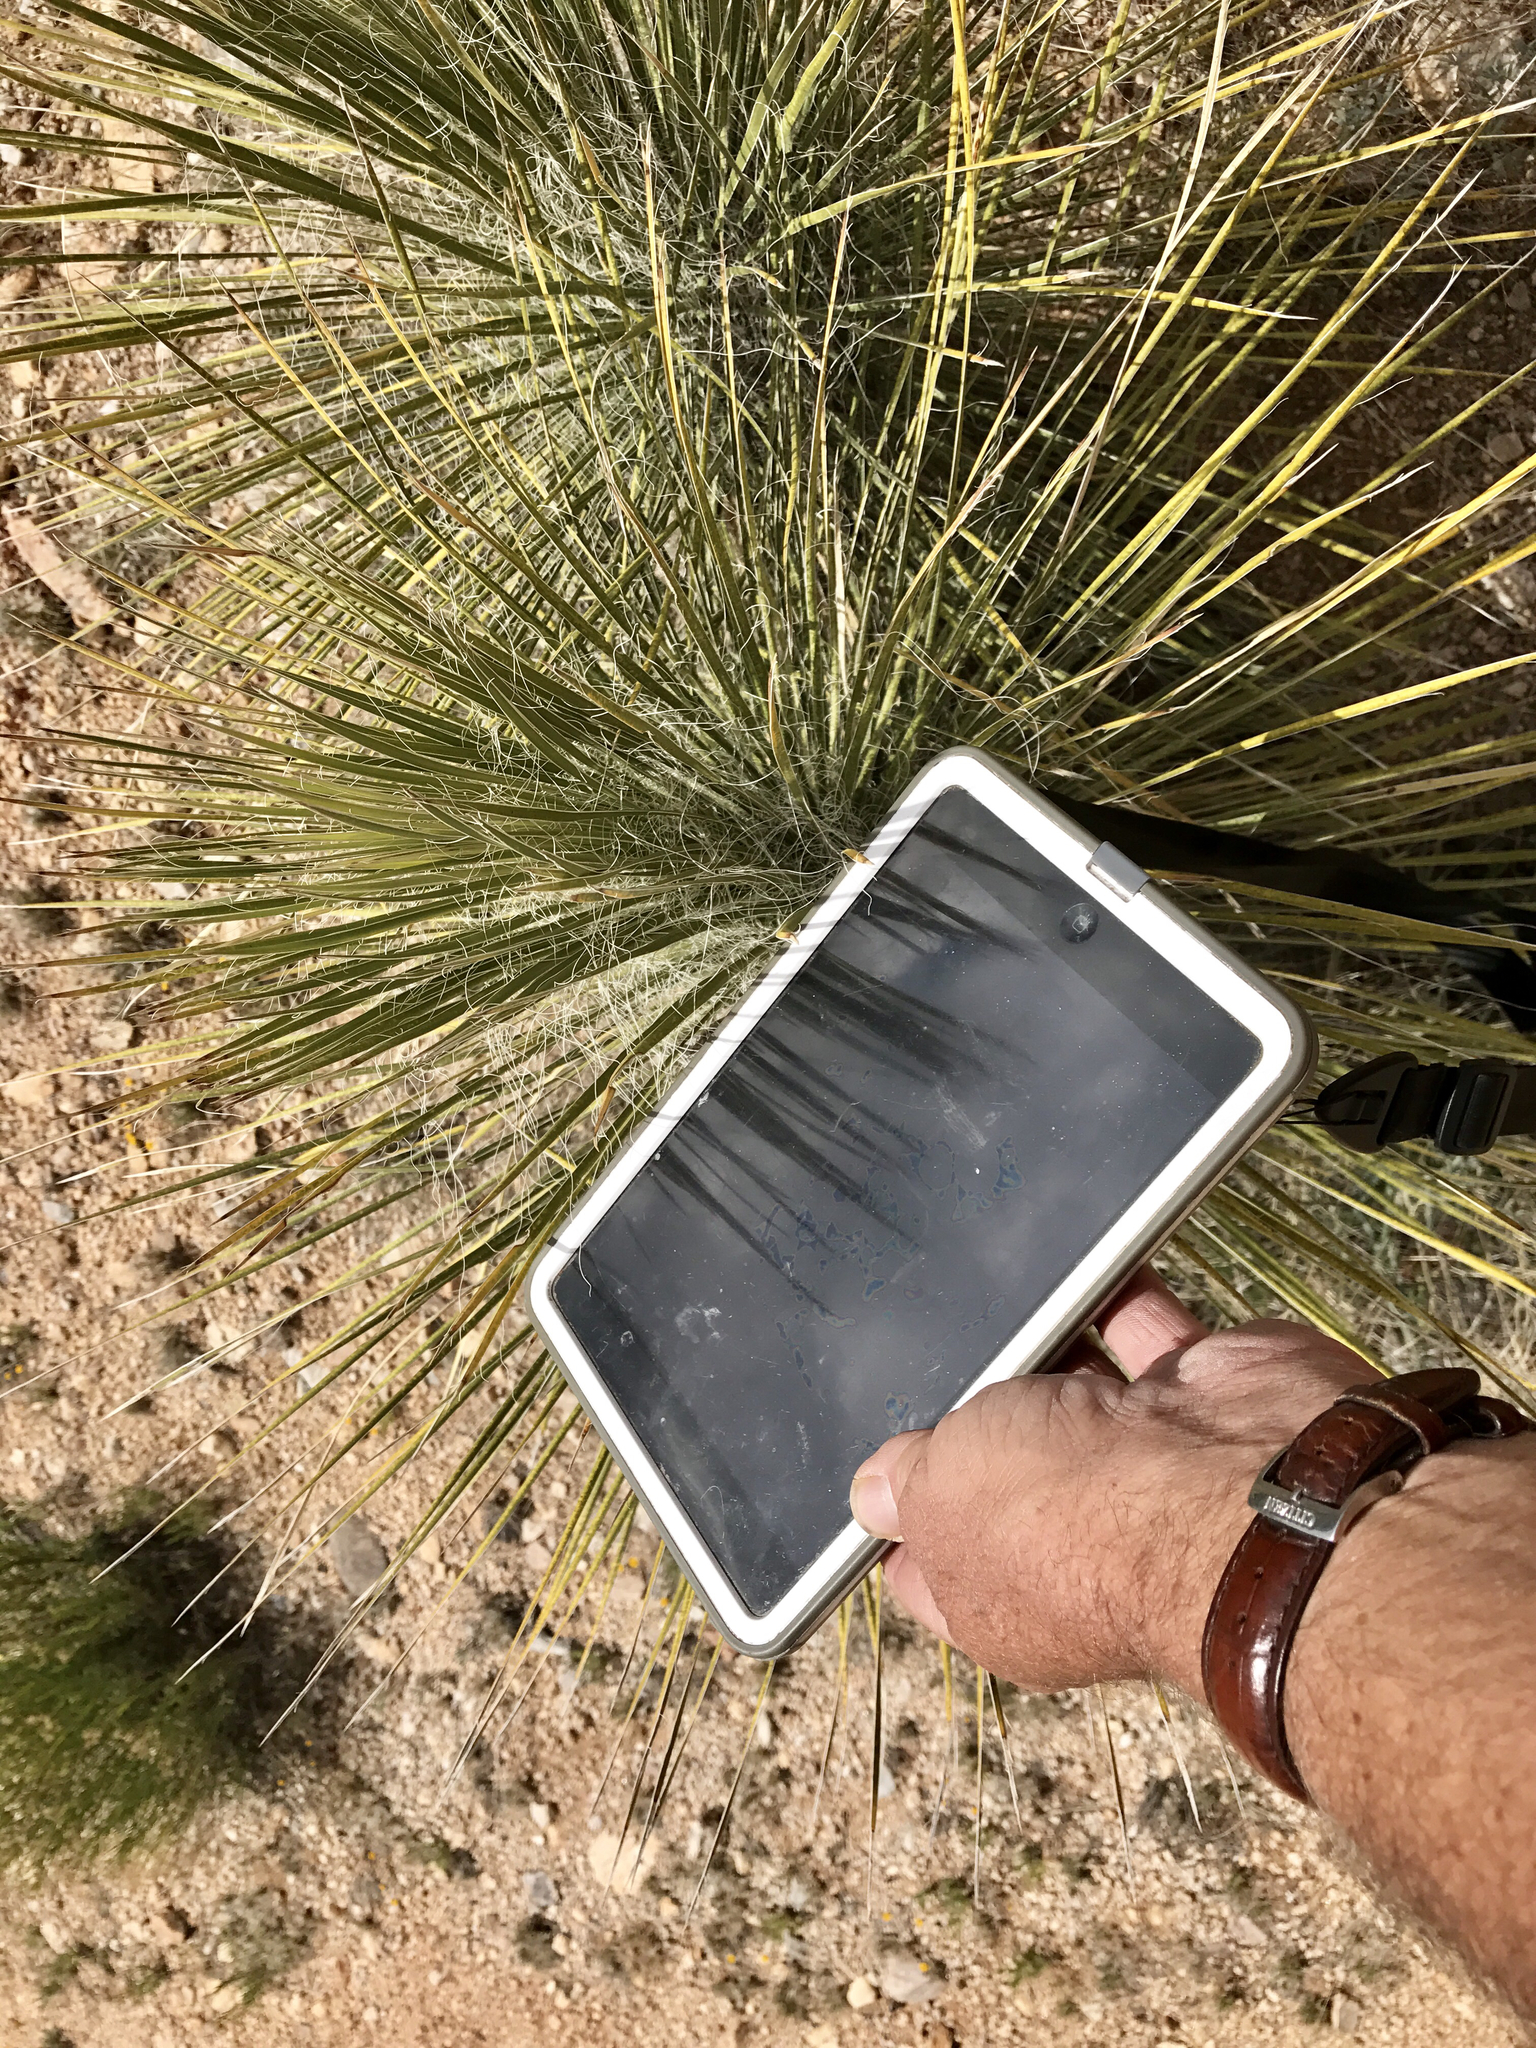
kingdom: Plantae
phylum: Tracheophyta
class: Liliopsida
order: Asparagales
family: Asparagaceae
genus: Yucca
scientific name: Yucca elata
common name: Palmella
